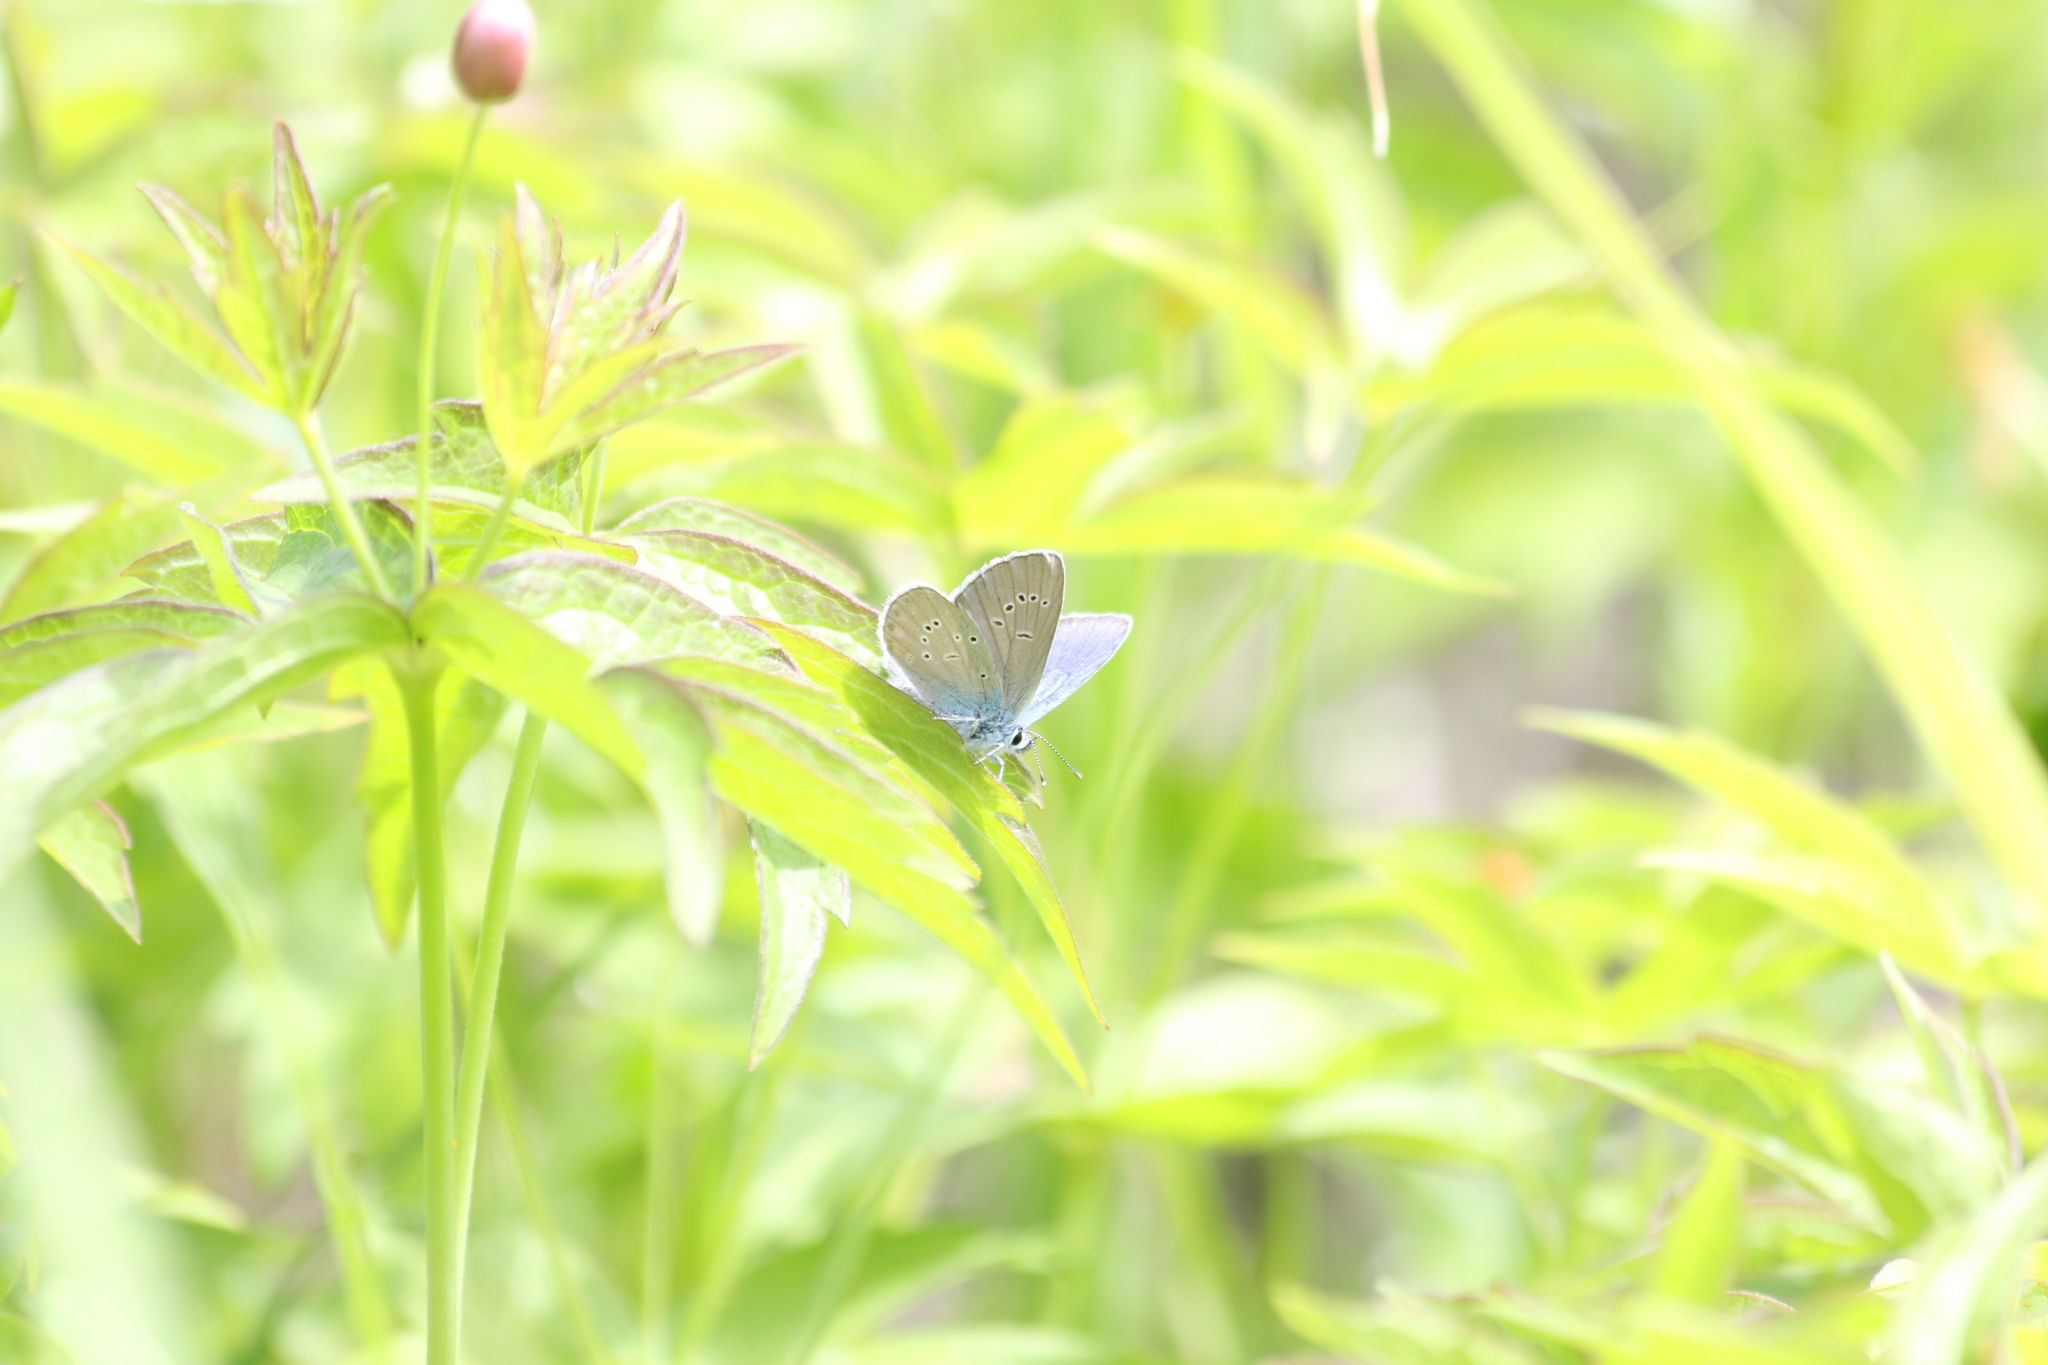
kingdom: Animalia
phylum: Arthropoda
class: Insecta
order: Lepidoptera
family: Lycaenidae
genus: Cyaniris
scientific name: Cyaniris semiargus
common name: Mazarine blue
